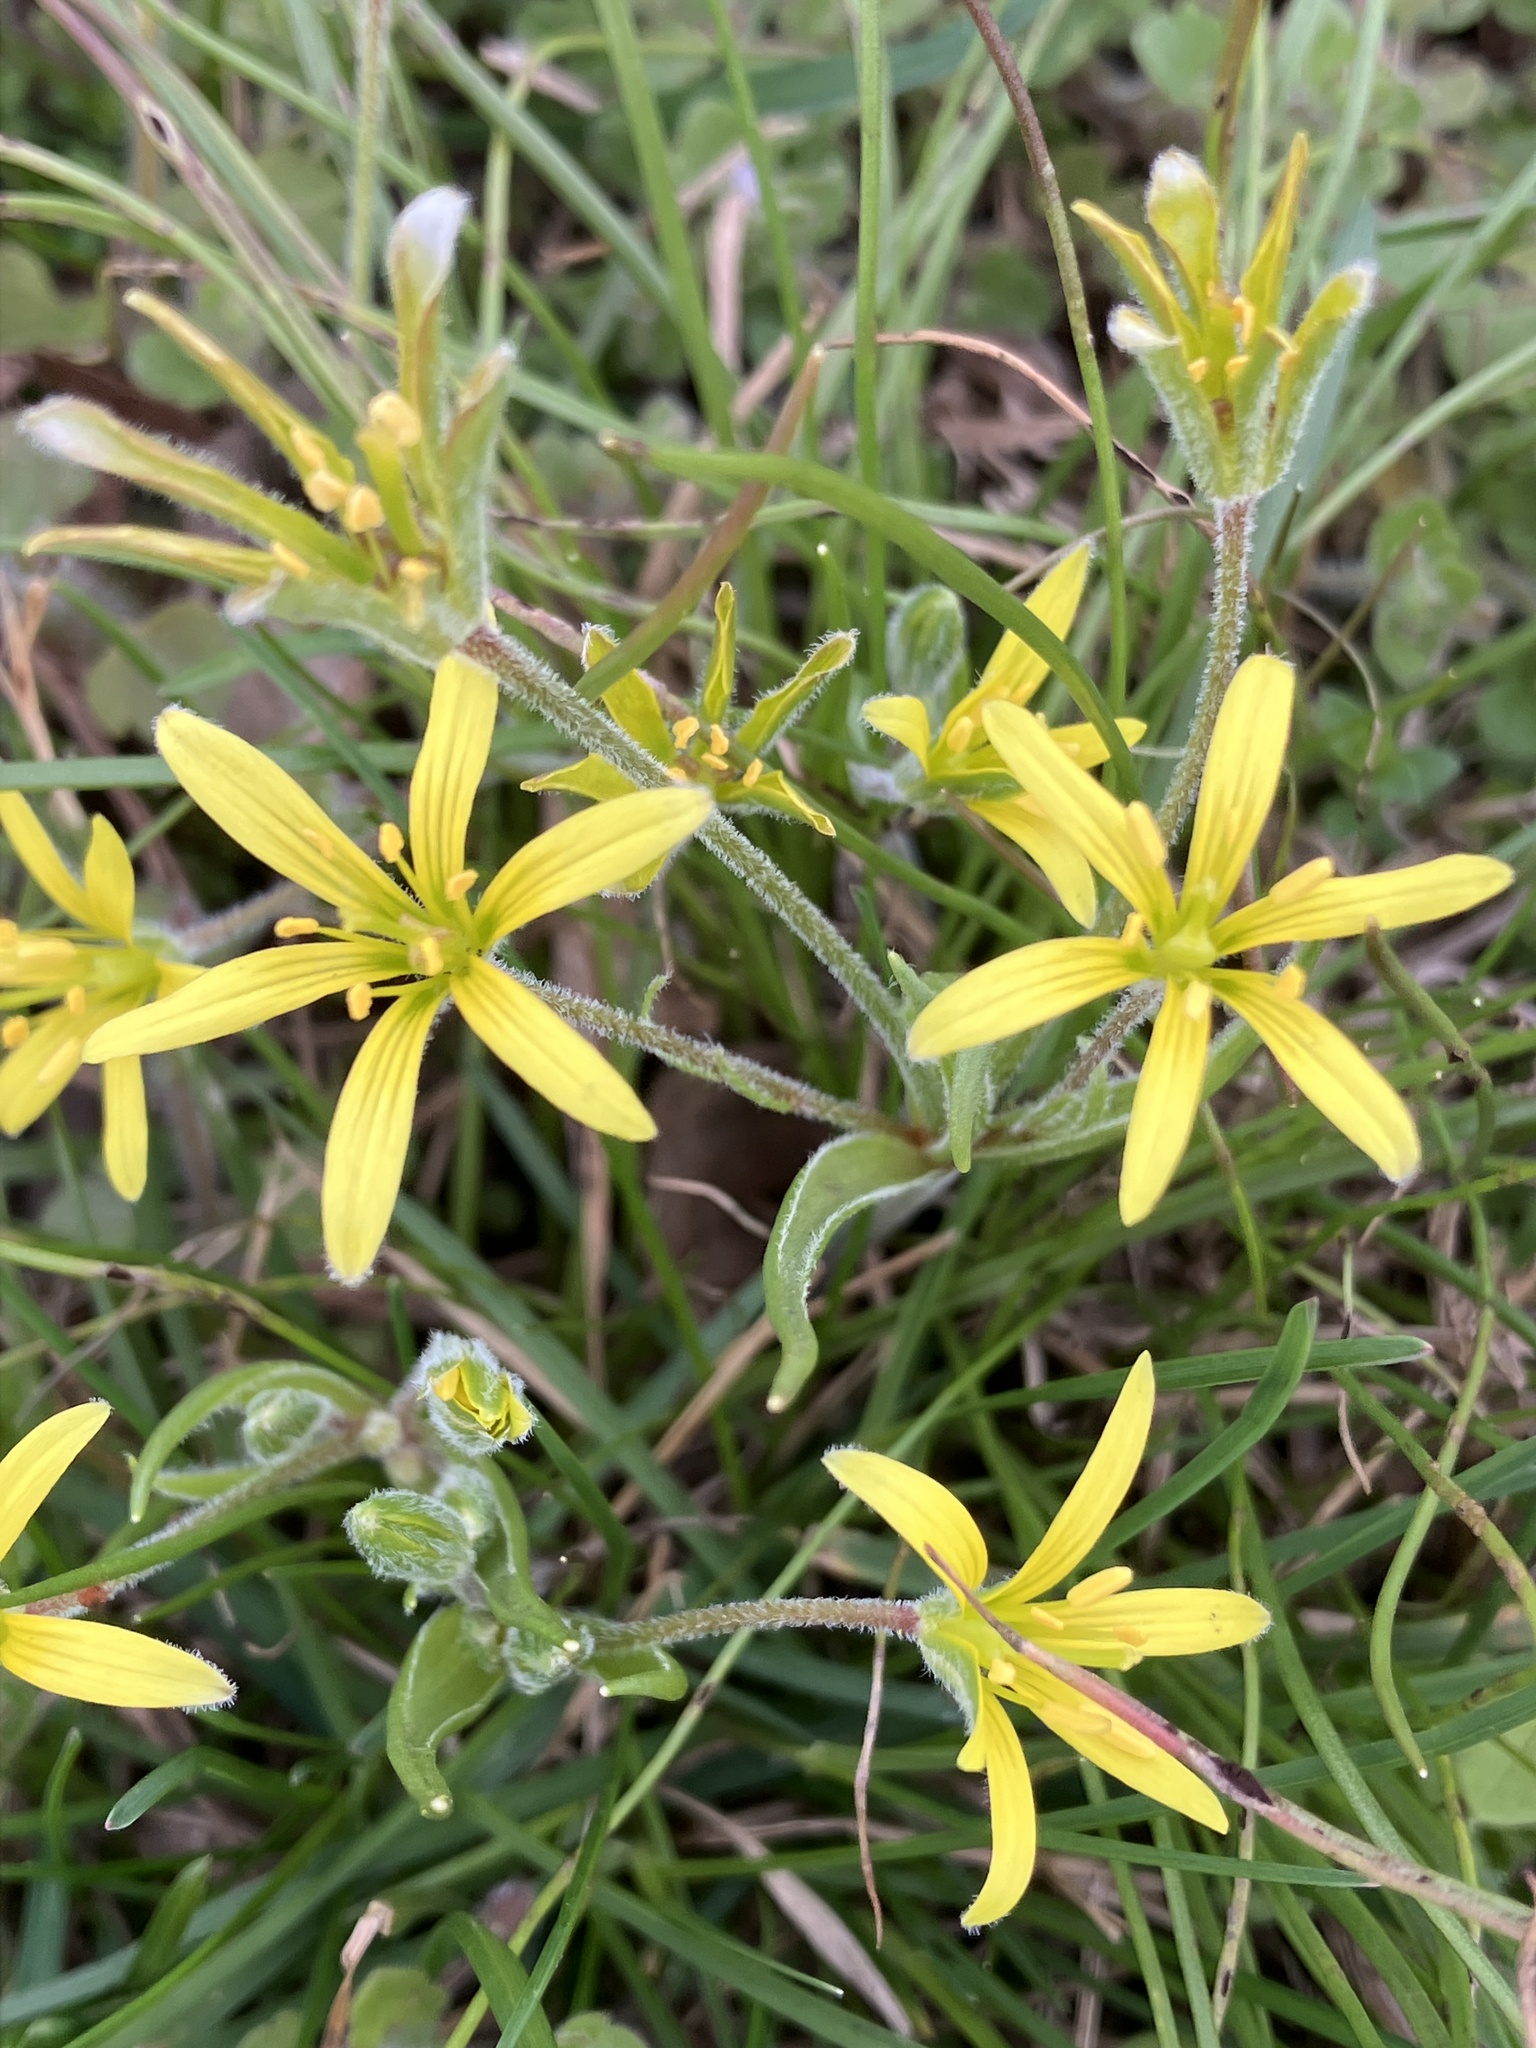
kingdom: Plantae
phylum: Tracheophyta
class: Liliopsida
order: Liliales
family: Liliaceae
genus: Gagea
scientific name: Gagea villosa
